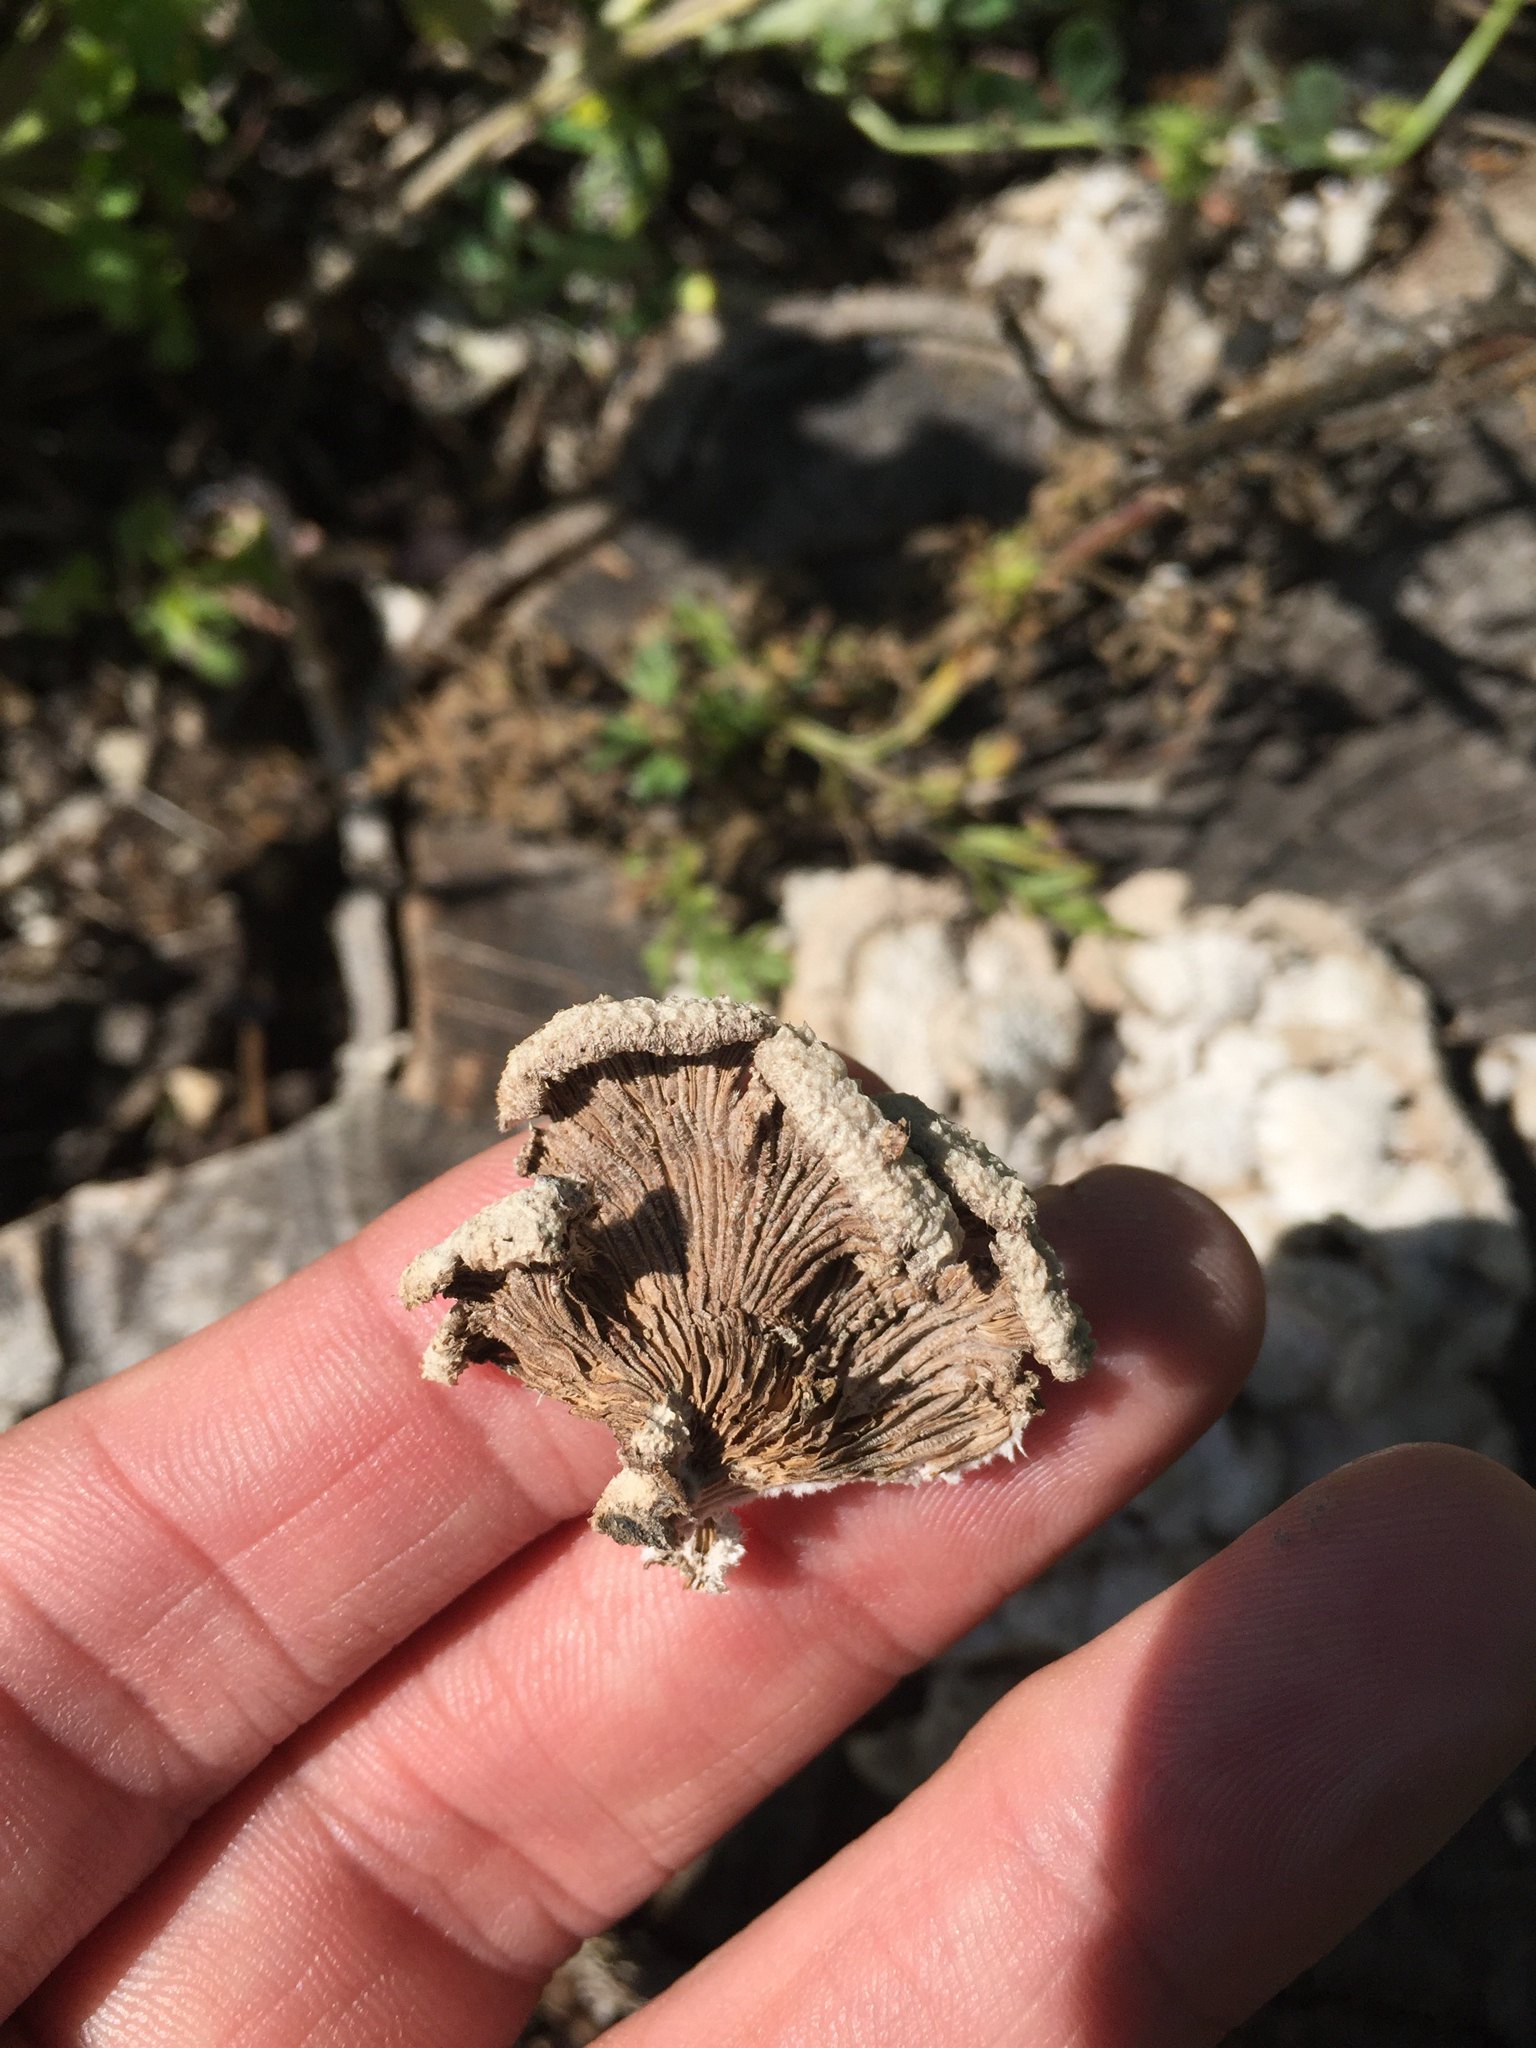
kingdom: Fungi
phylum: Basidiomycota
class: Agaricomycetes
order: Agaricales
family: Schizophyllaceae
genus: Schizophyllum
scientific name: Schizophyllum commune
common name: Common porecrust
